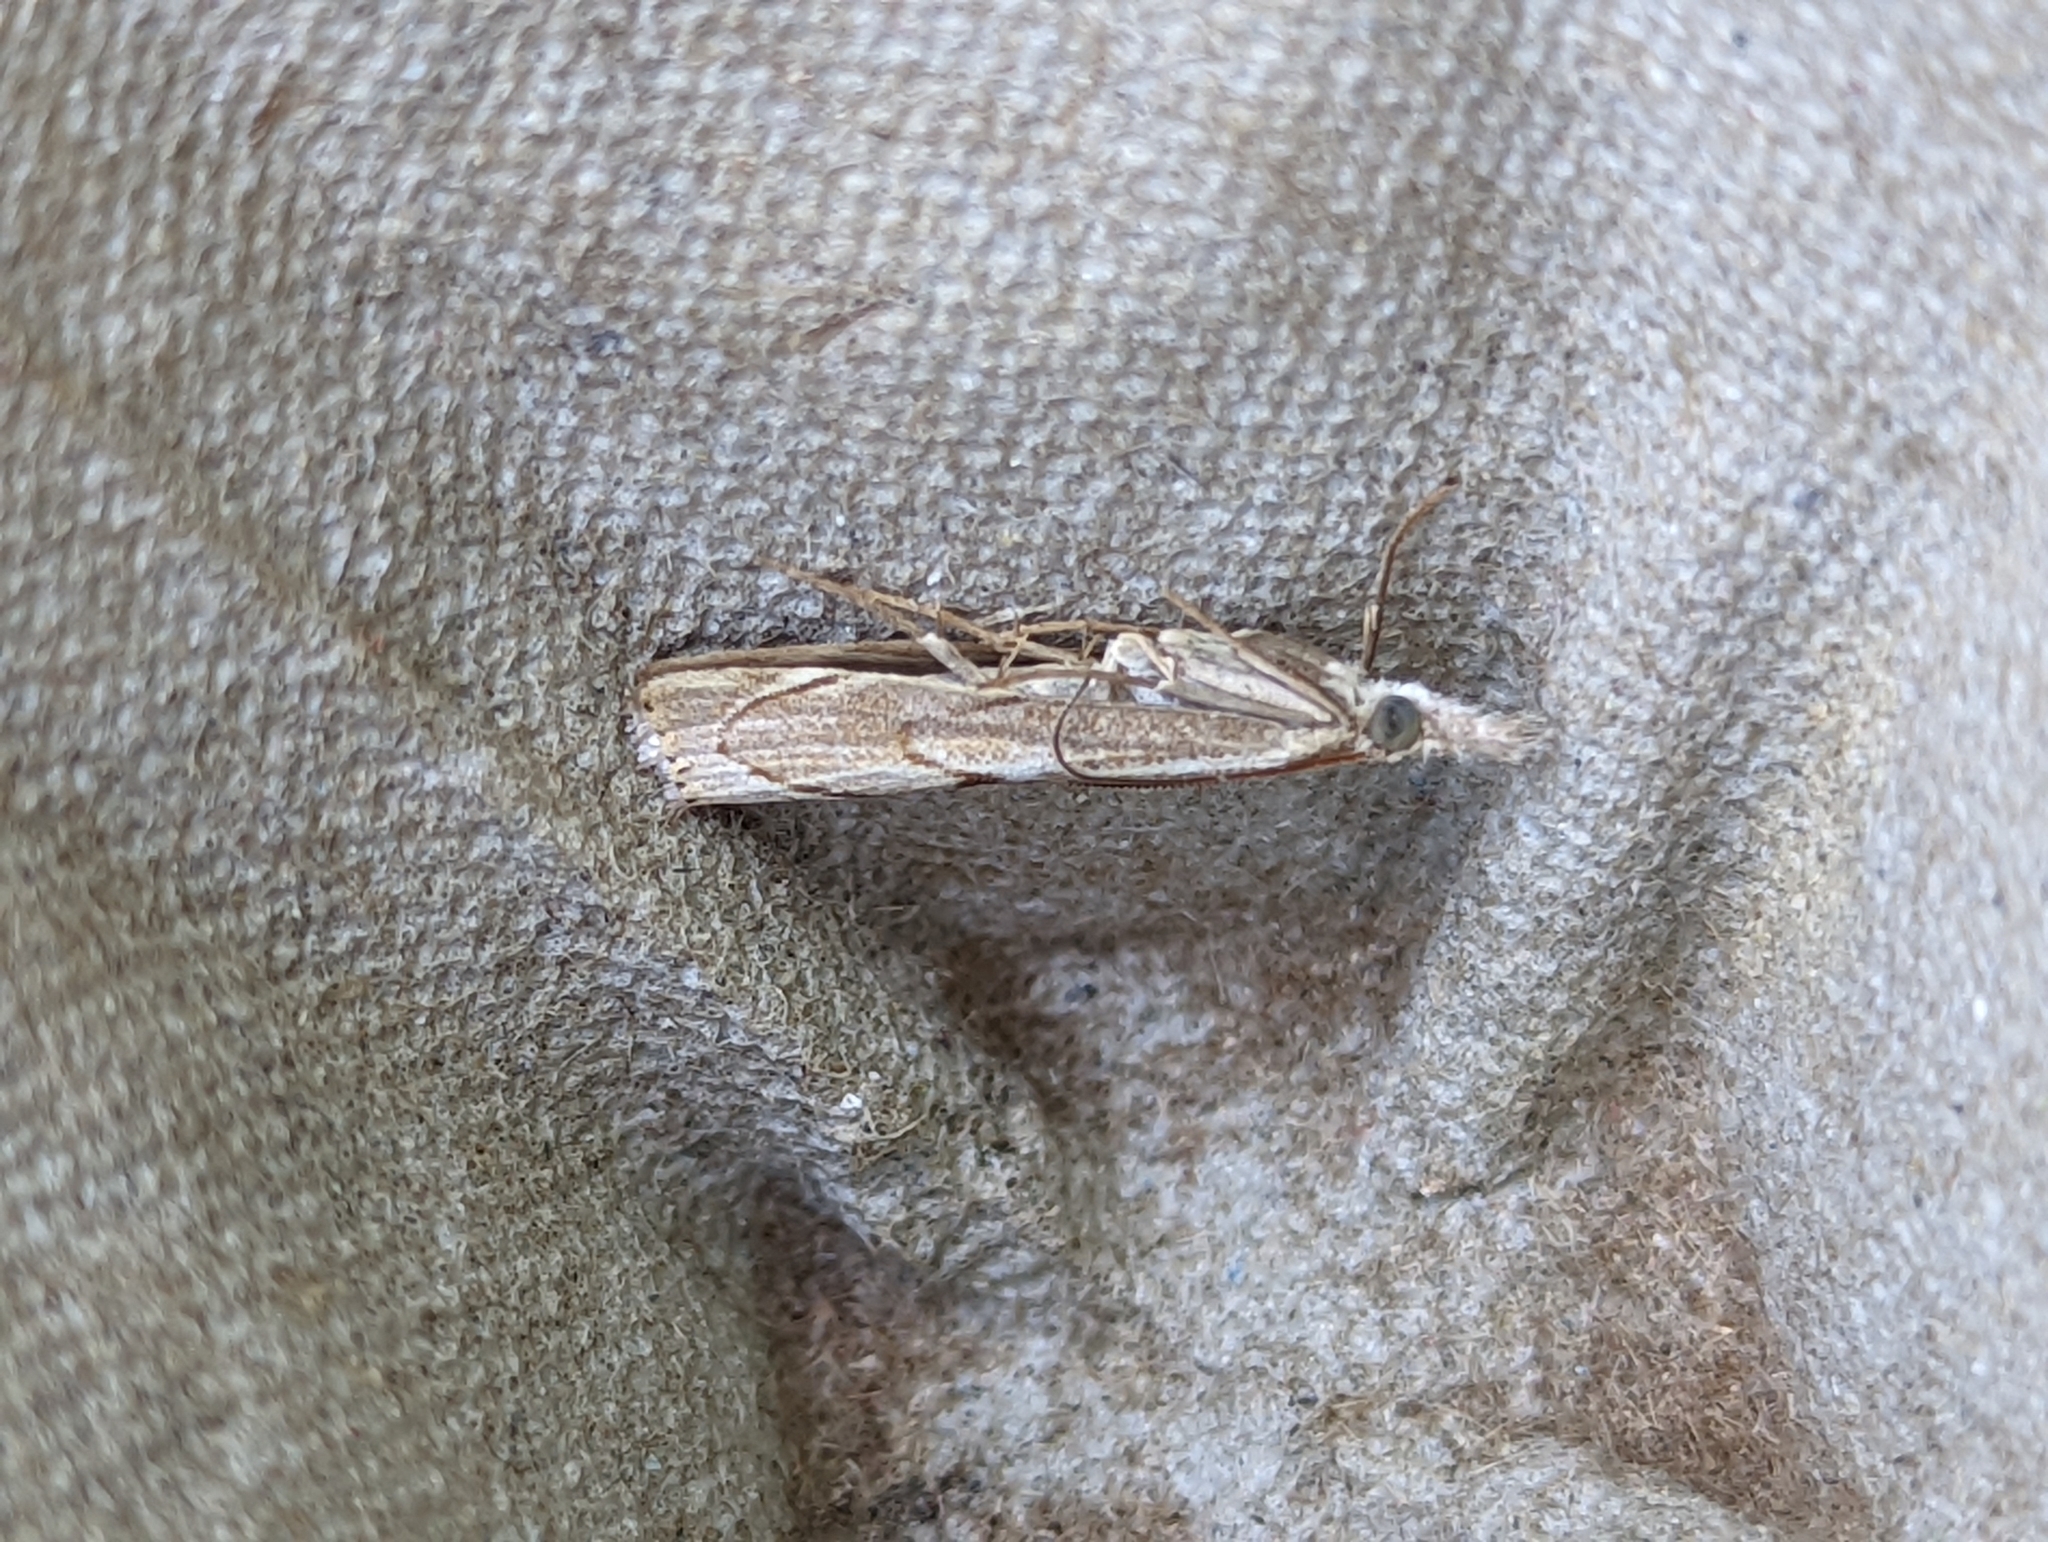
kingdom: Animalia
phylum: Arthropoda
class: Insecta
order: Lepidoptera
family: Crambidae
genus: Agriphila
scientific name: Agriphila geniculea
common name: Elbow-stripe grass-veneer
